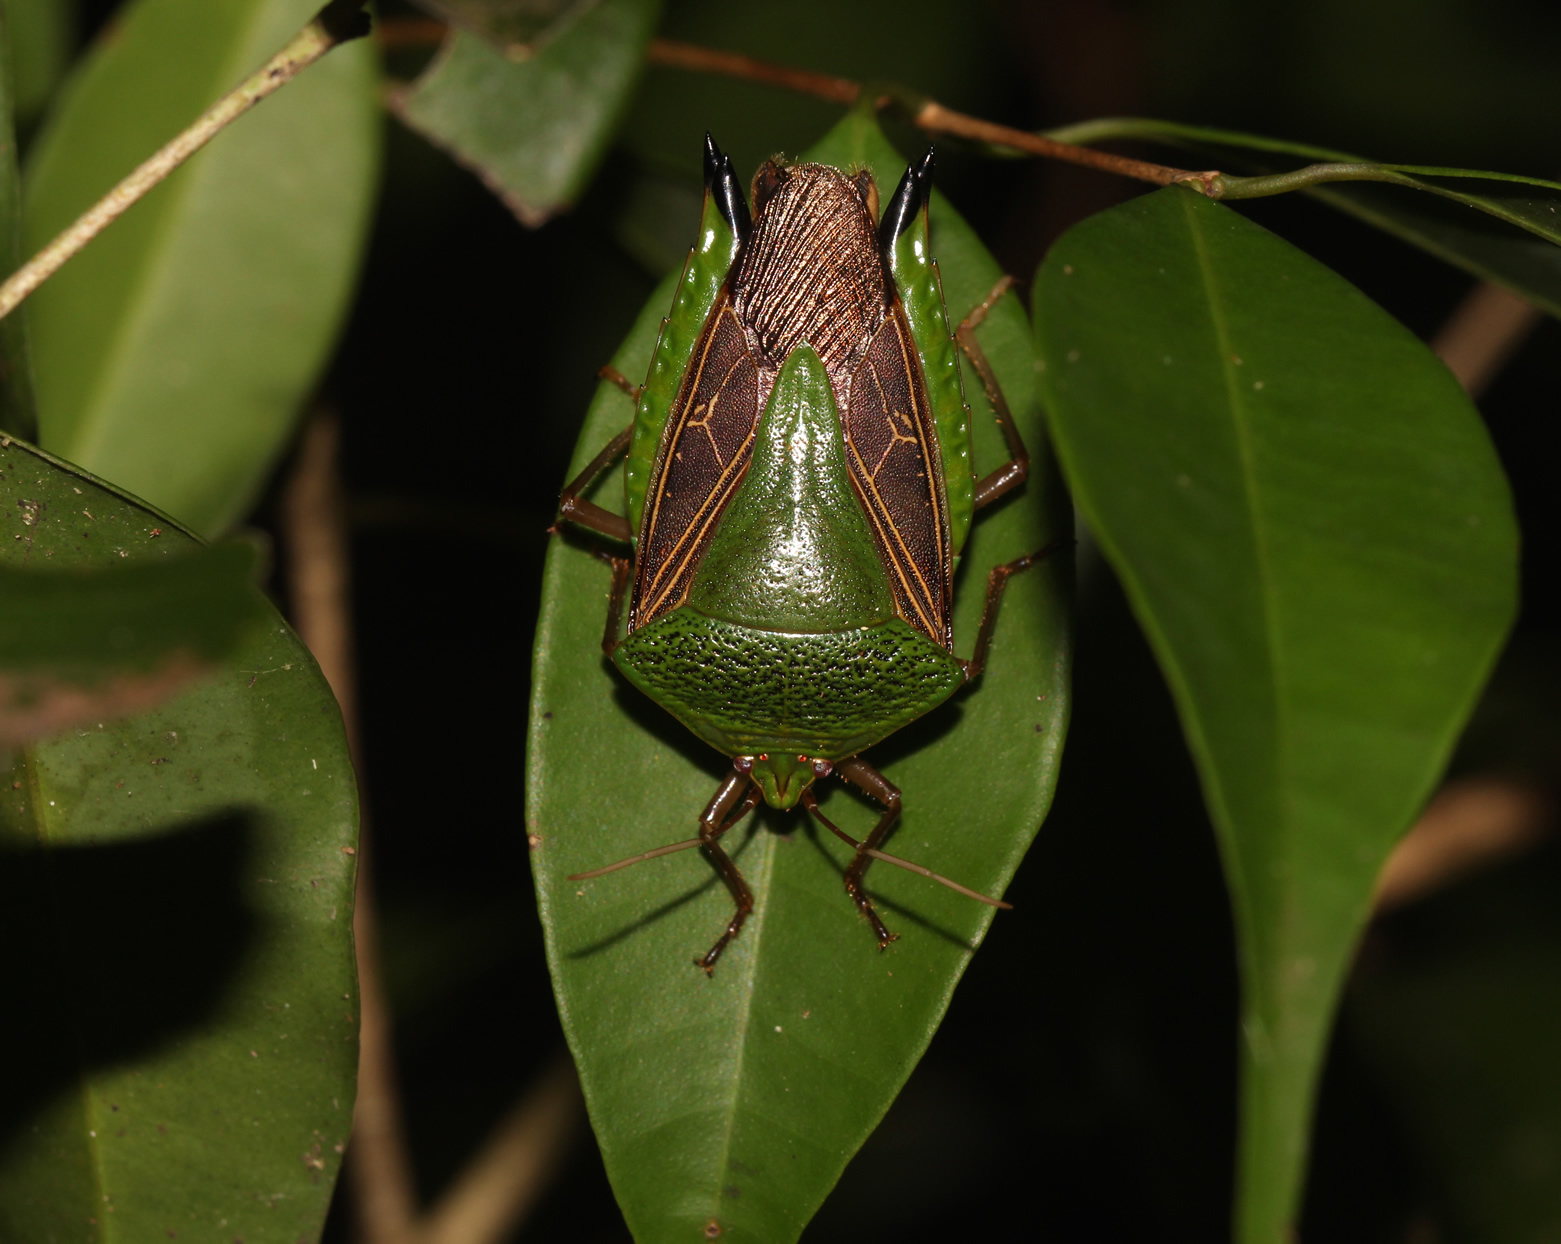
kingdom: Animalia
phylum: Arthropoda
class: Insecta
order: Hemiptera
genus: Pygoda
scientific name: Pygoda polita
